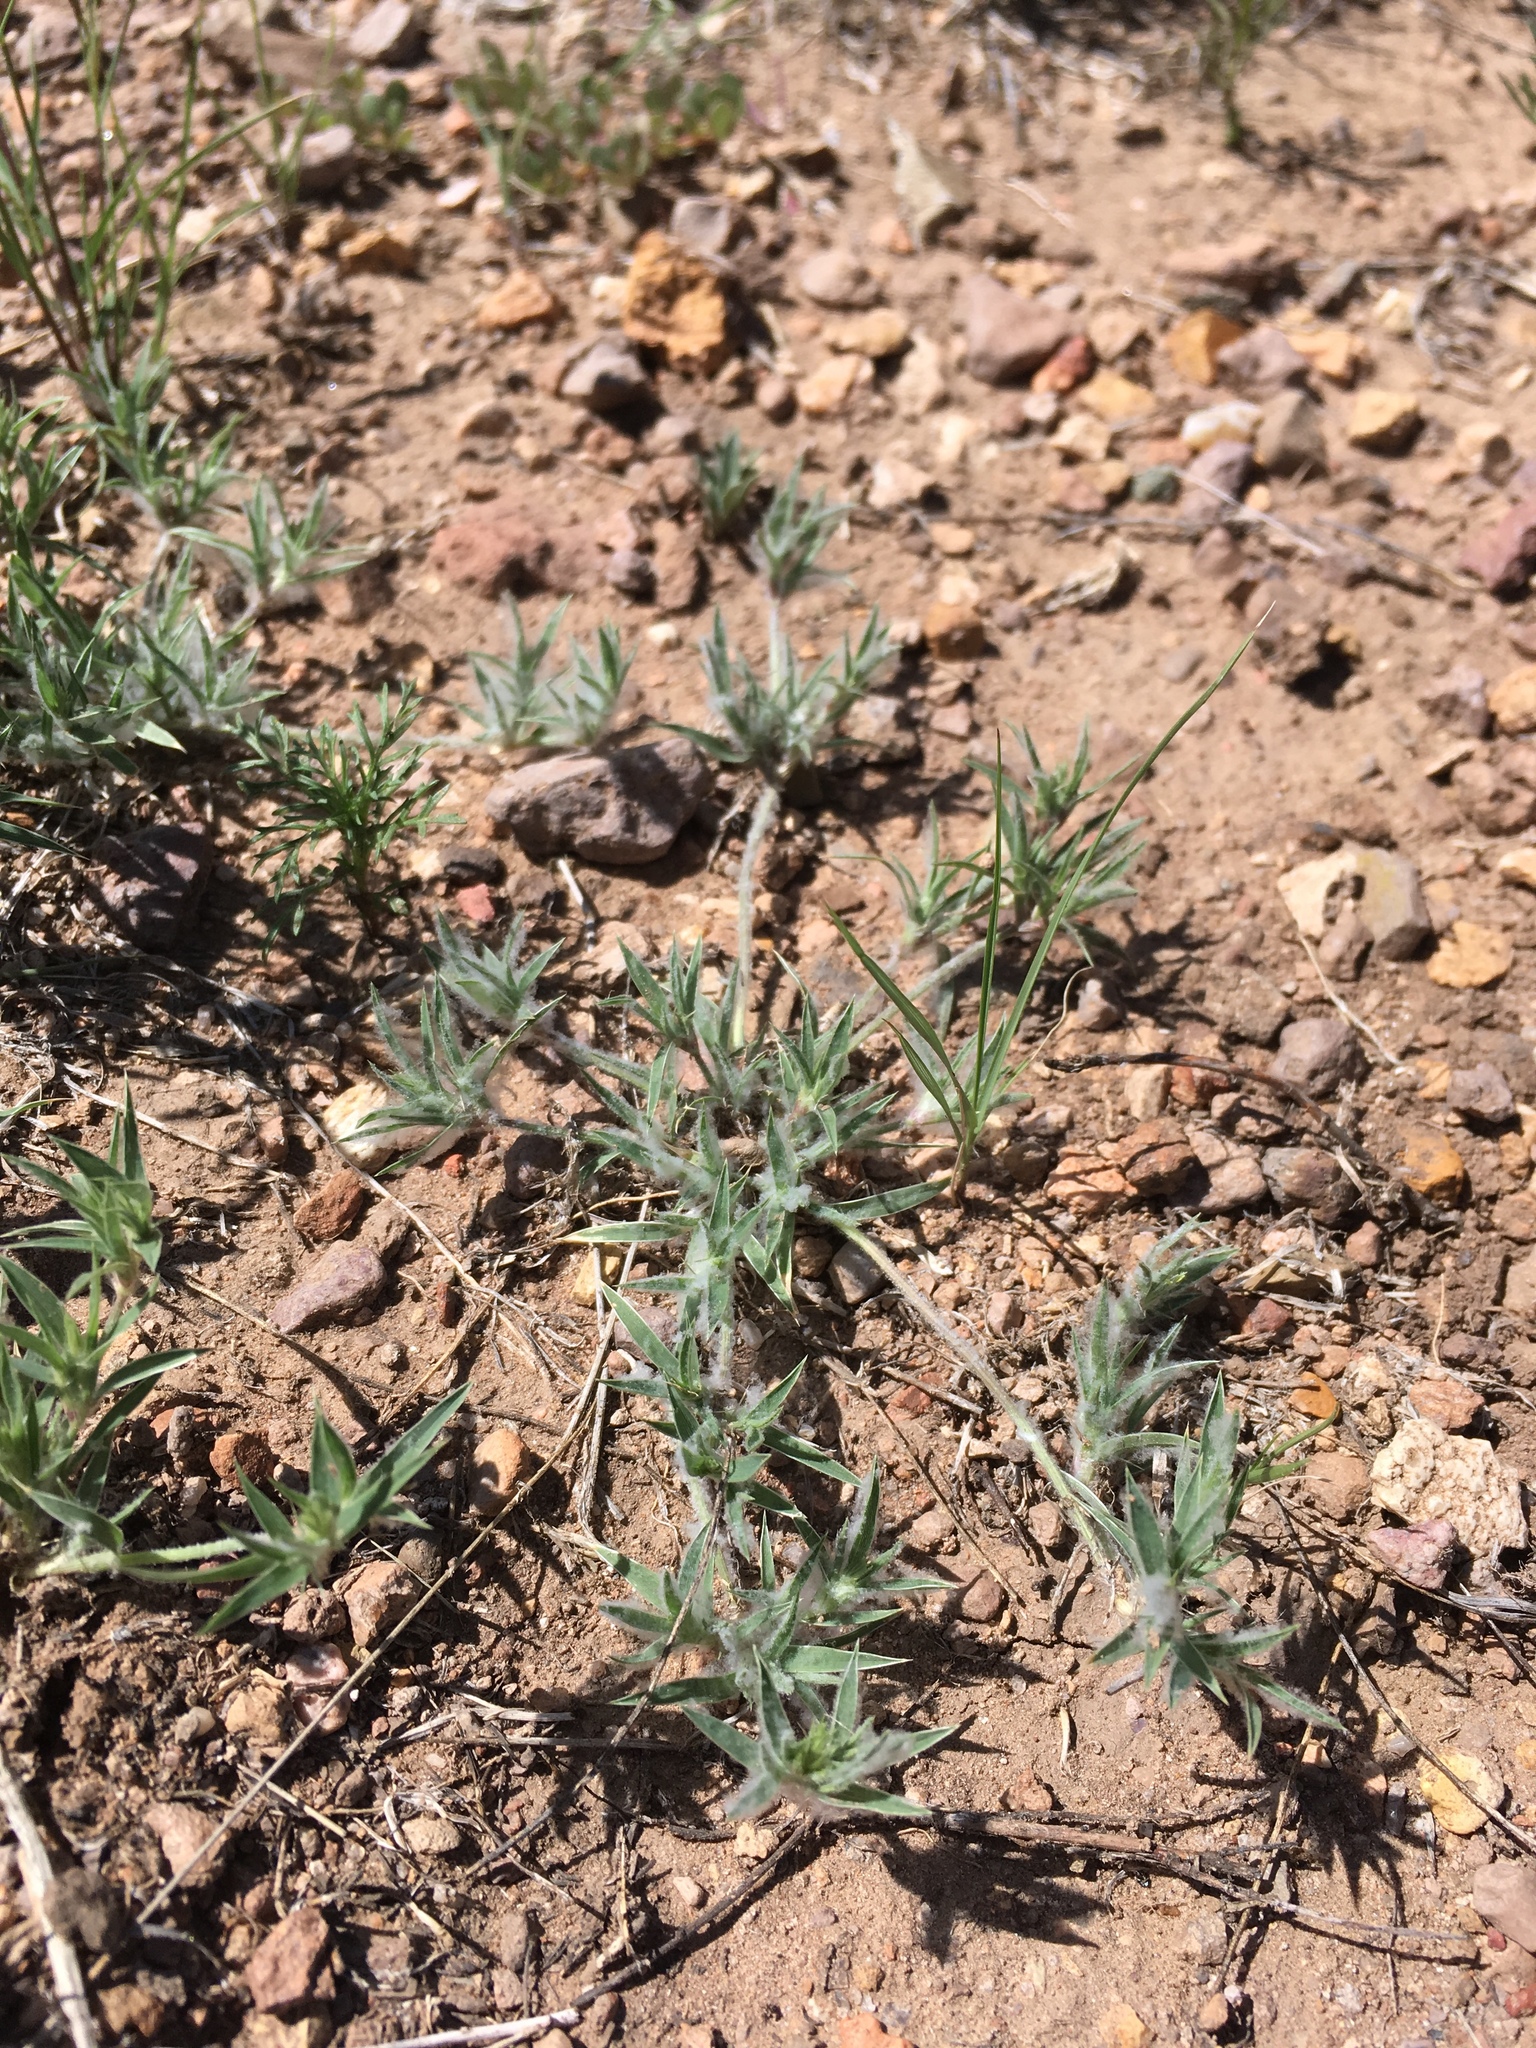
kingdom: Plantae
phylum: Tracheophyta
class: Liliopsida
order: Poales
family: Poaceae
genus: Munroa
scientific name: Munroa squarrosa
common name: False buffalo grass
